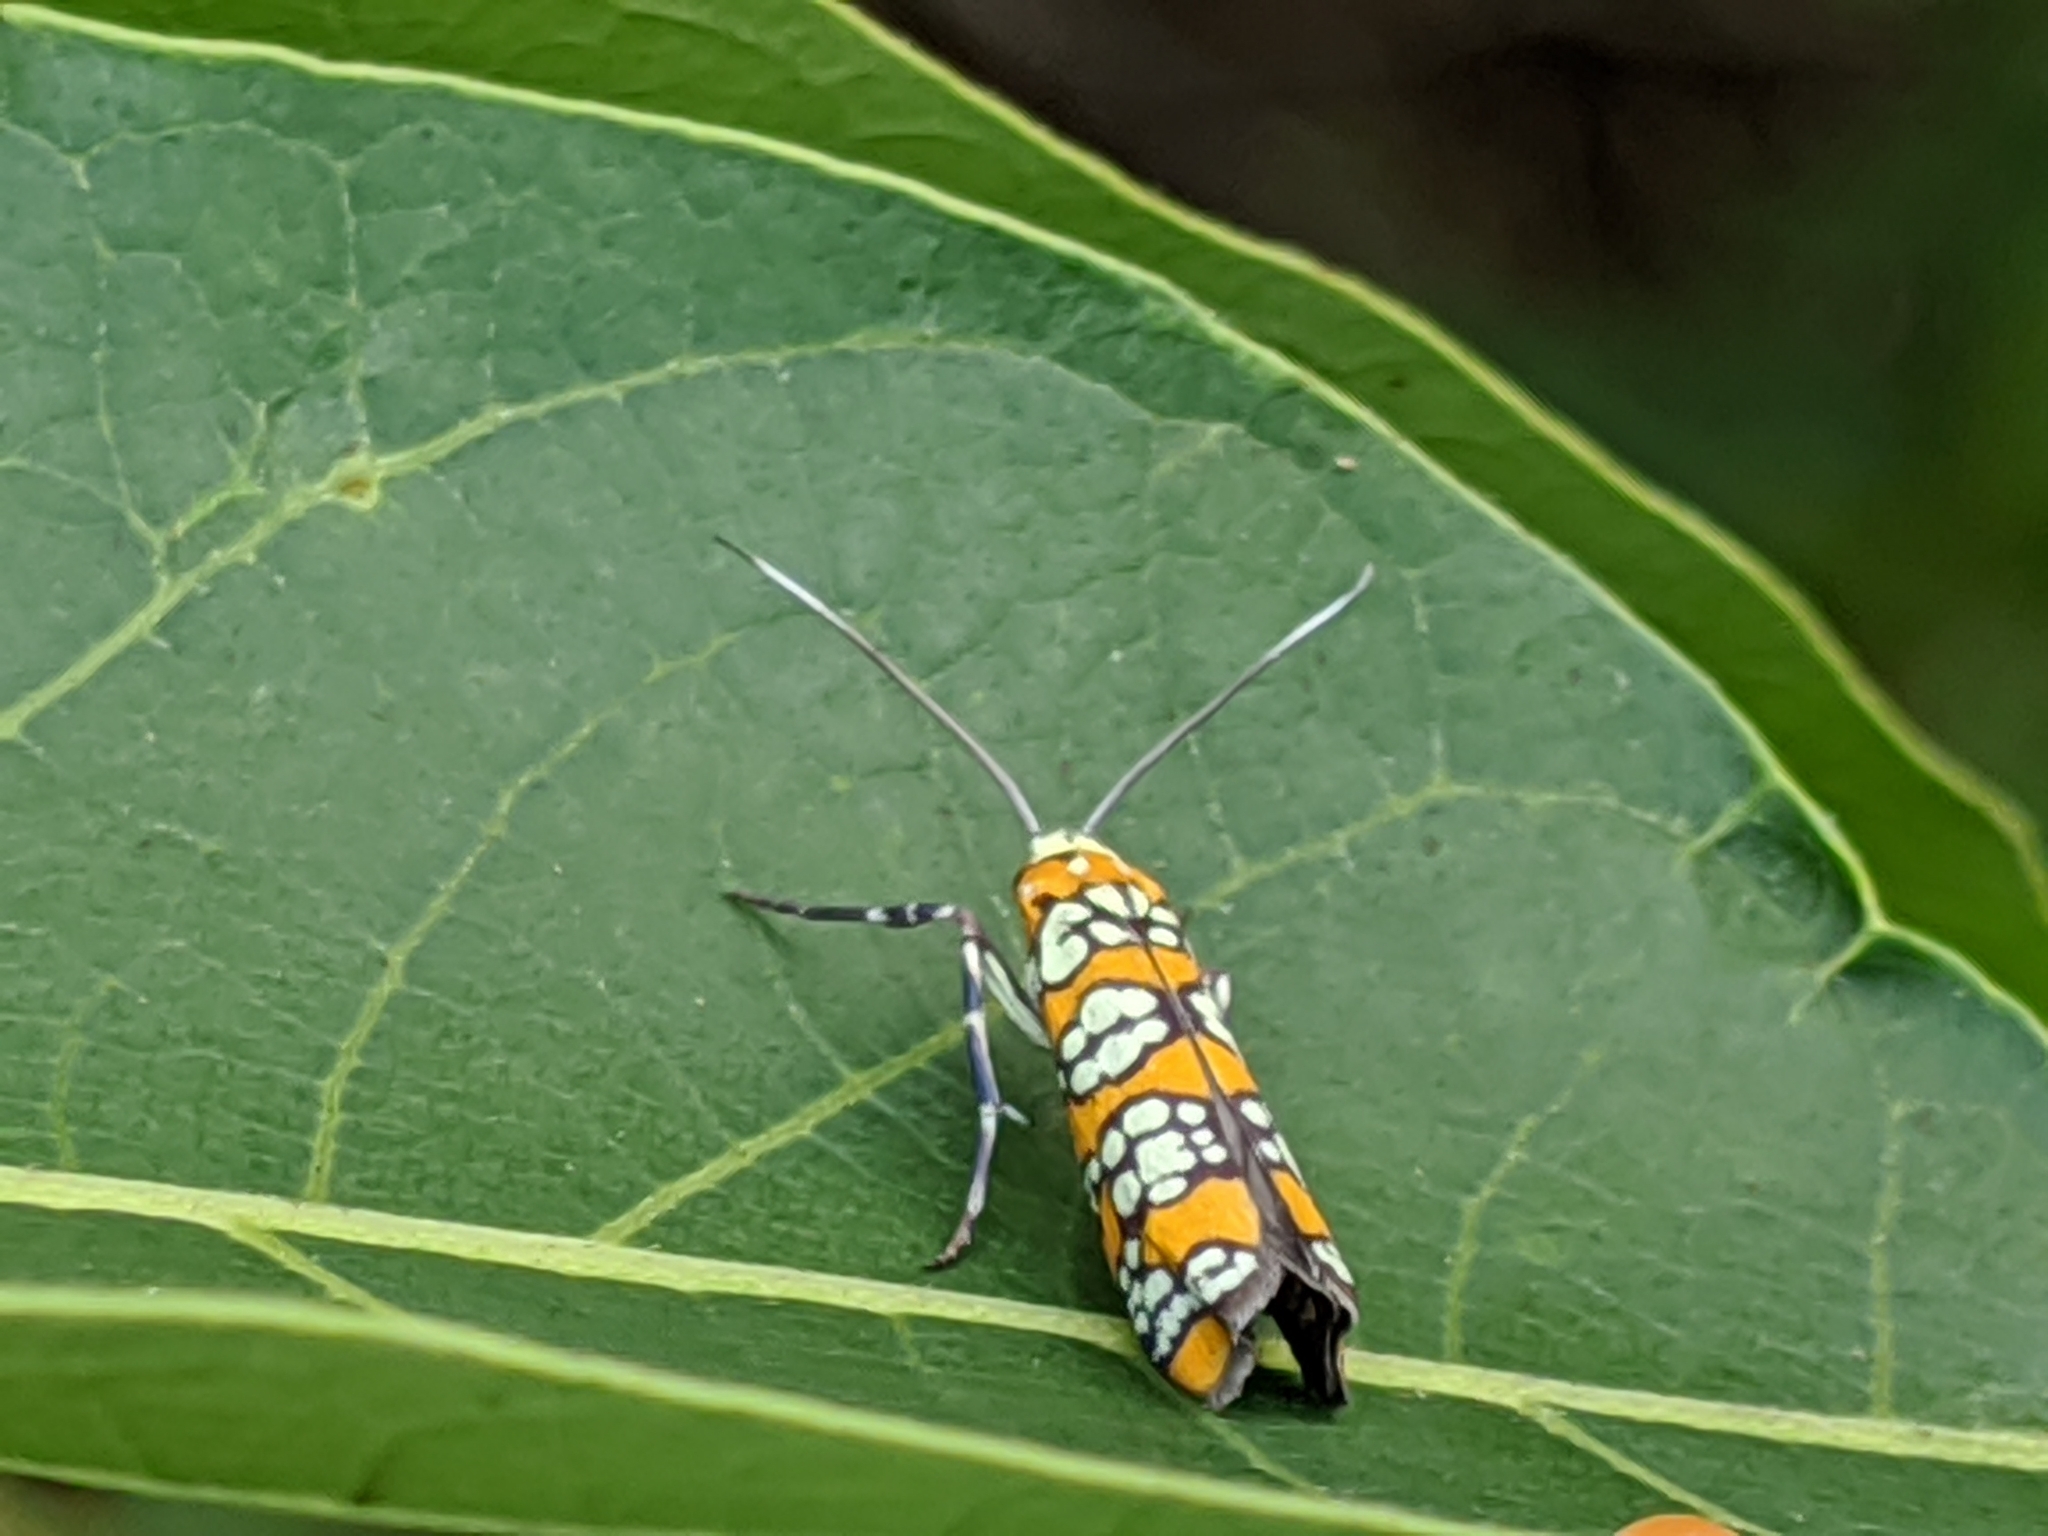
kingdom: Animalia
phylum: Arthropoda
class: Insecta
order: Lepidoptera
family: Attevidae
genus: Atteva
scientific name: Atteva punctella
